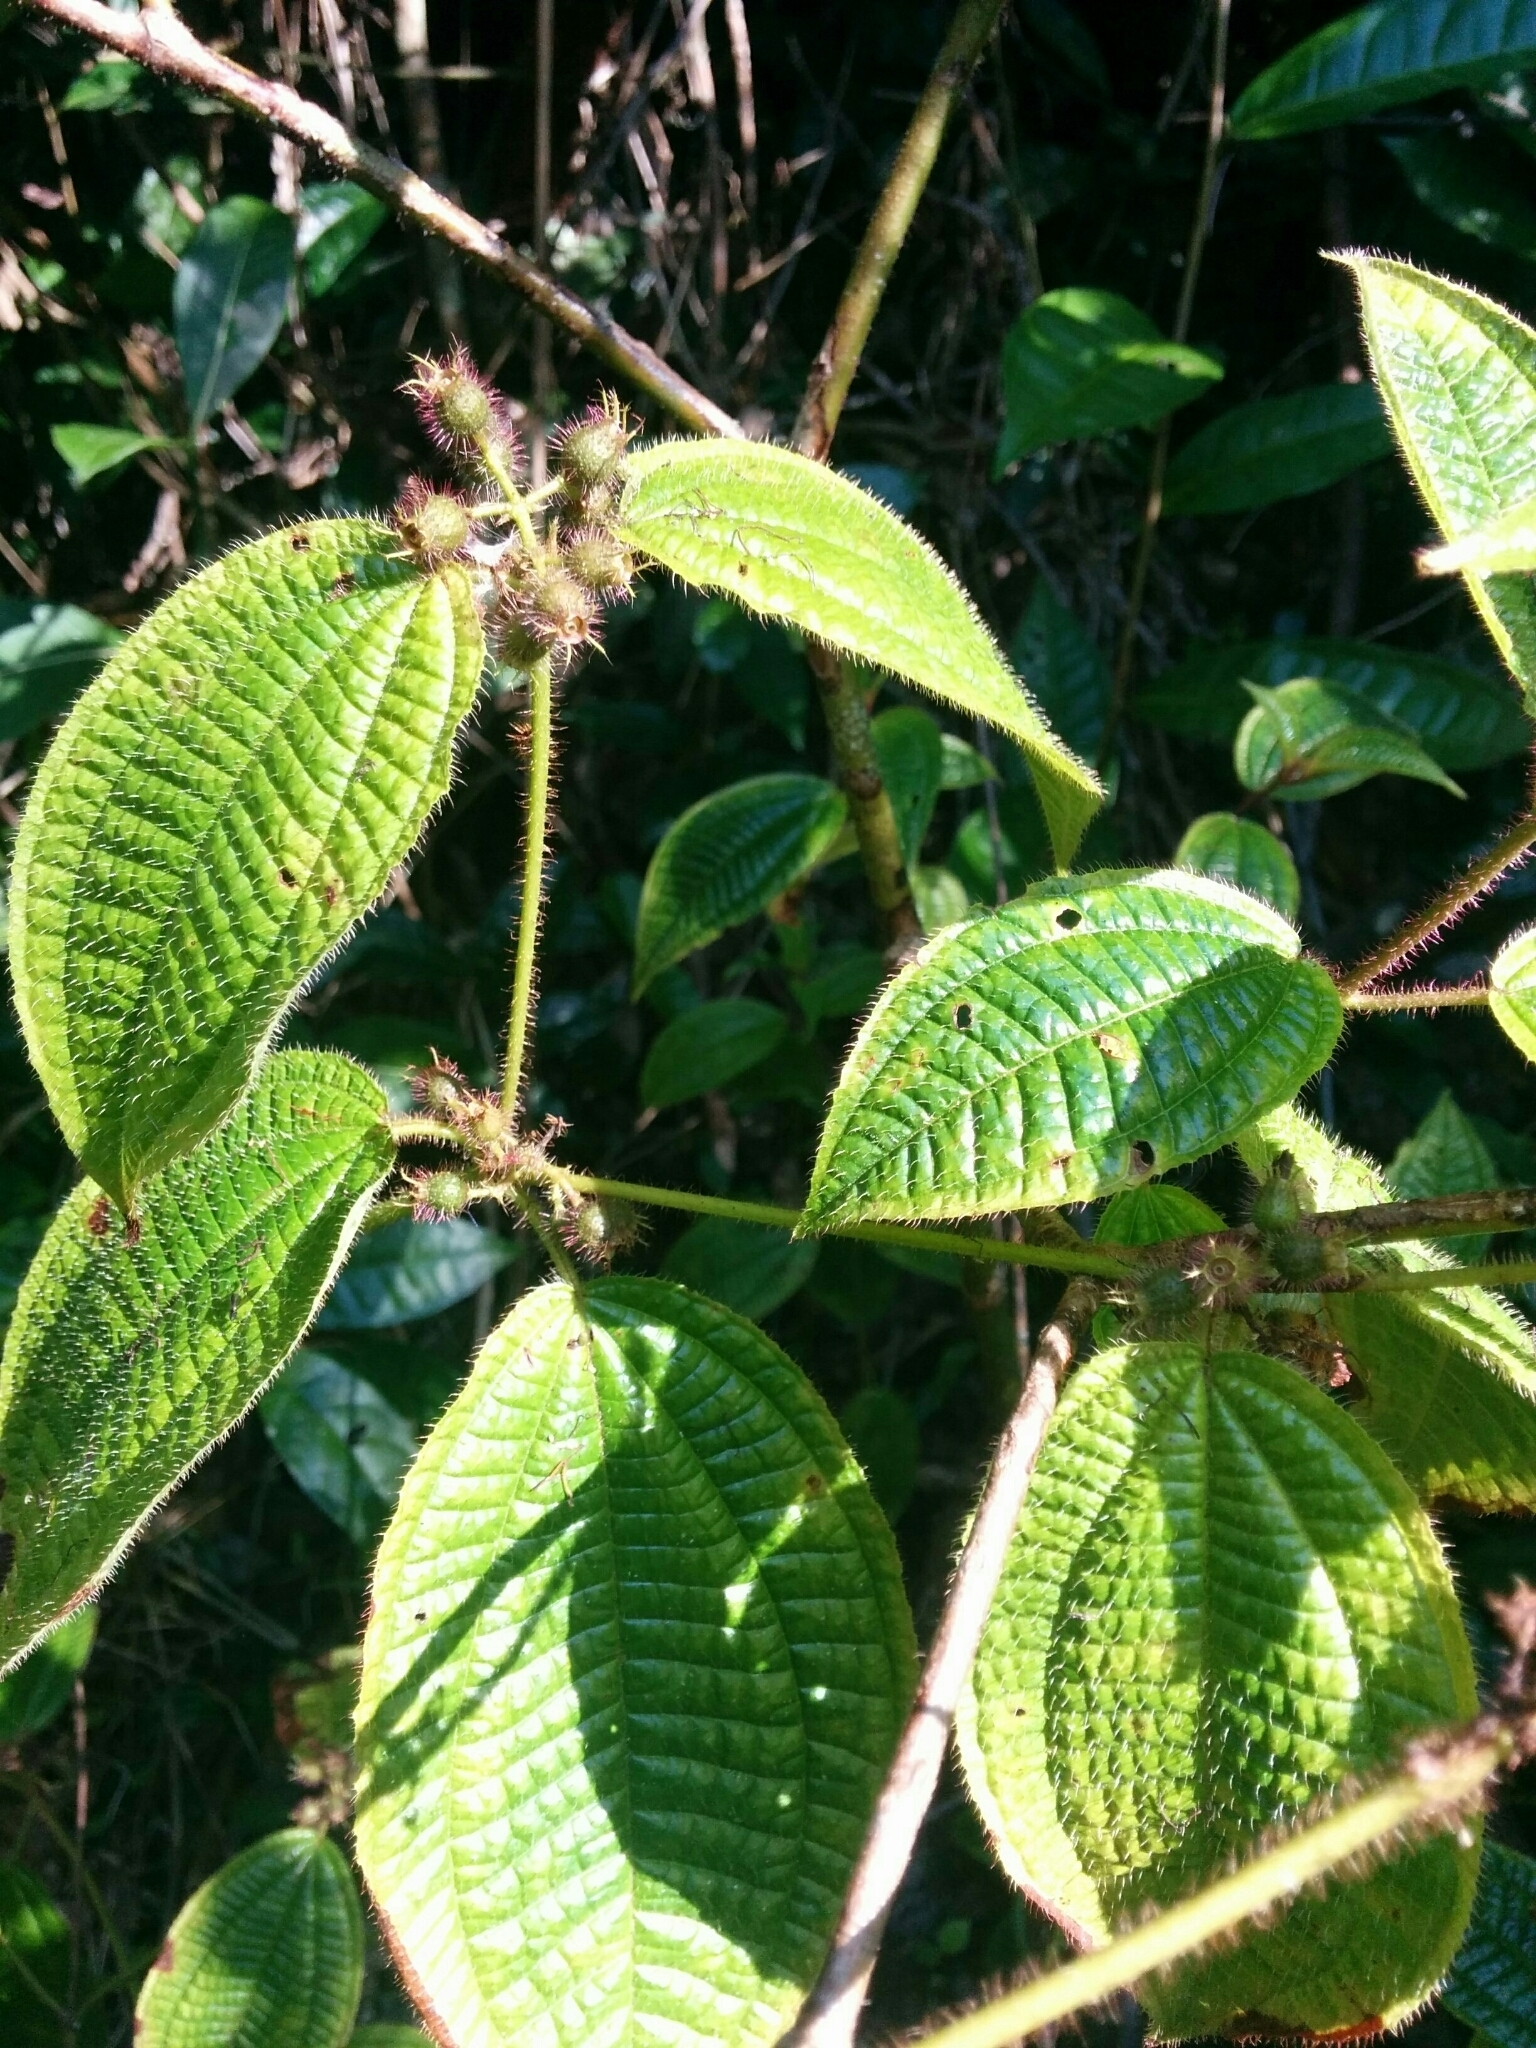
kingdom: Plantae
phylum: Tracheophyta
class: Magnoliopsida
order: Myrtales
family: Melastomataceae
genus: Miconia
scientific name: Miconia crenata
